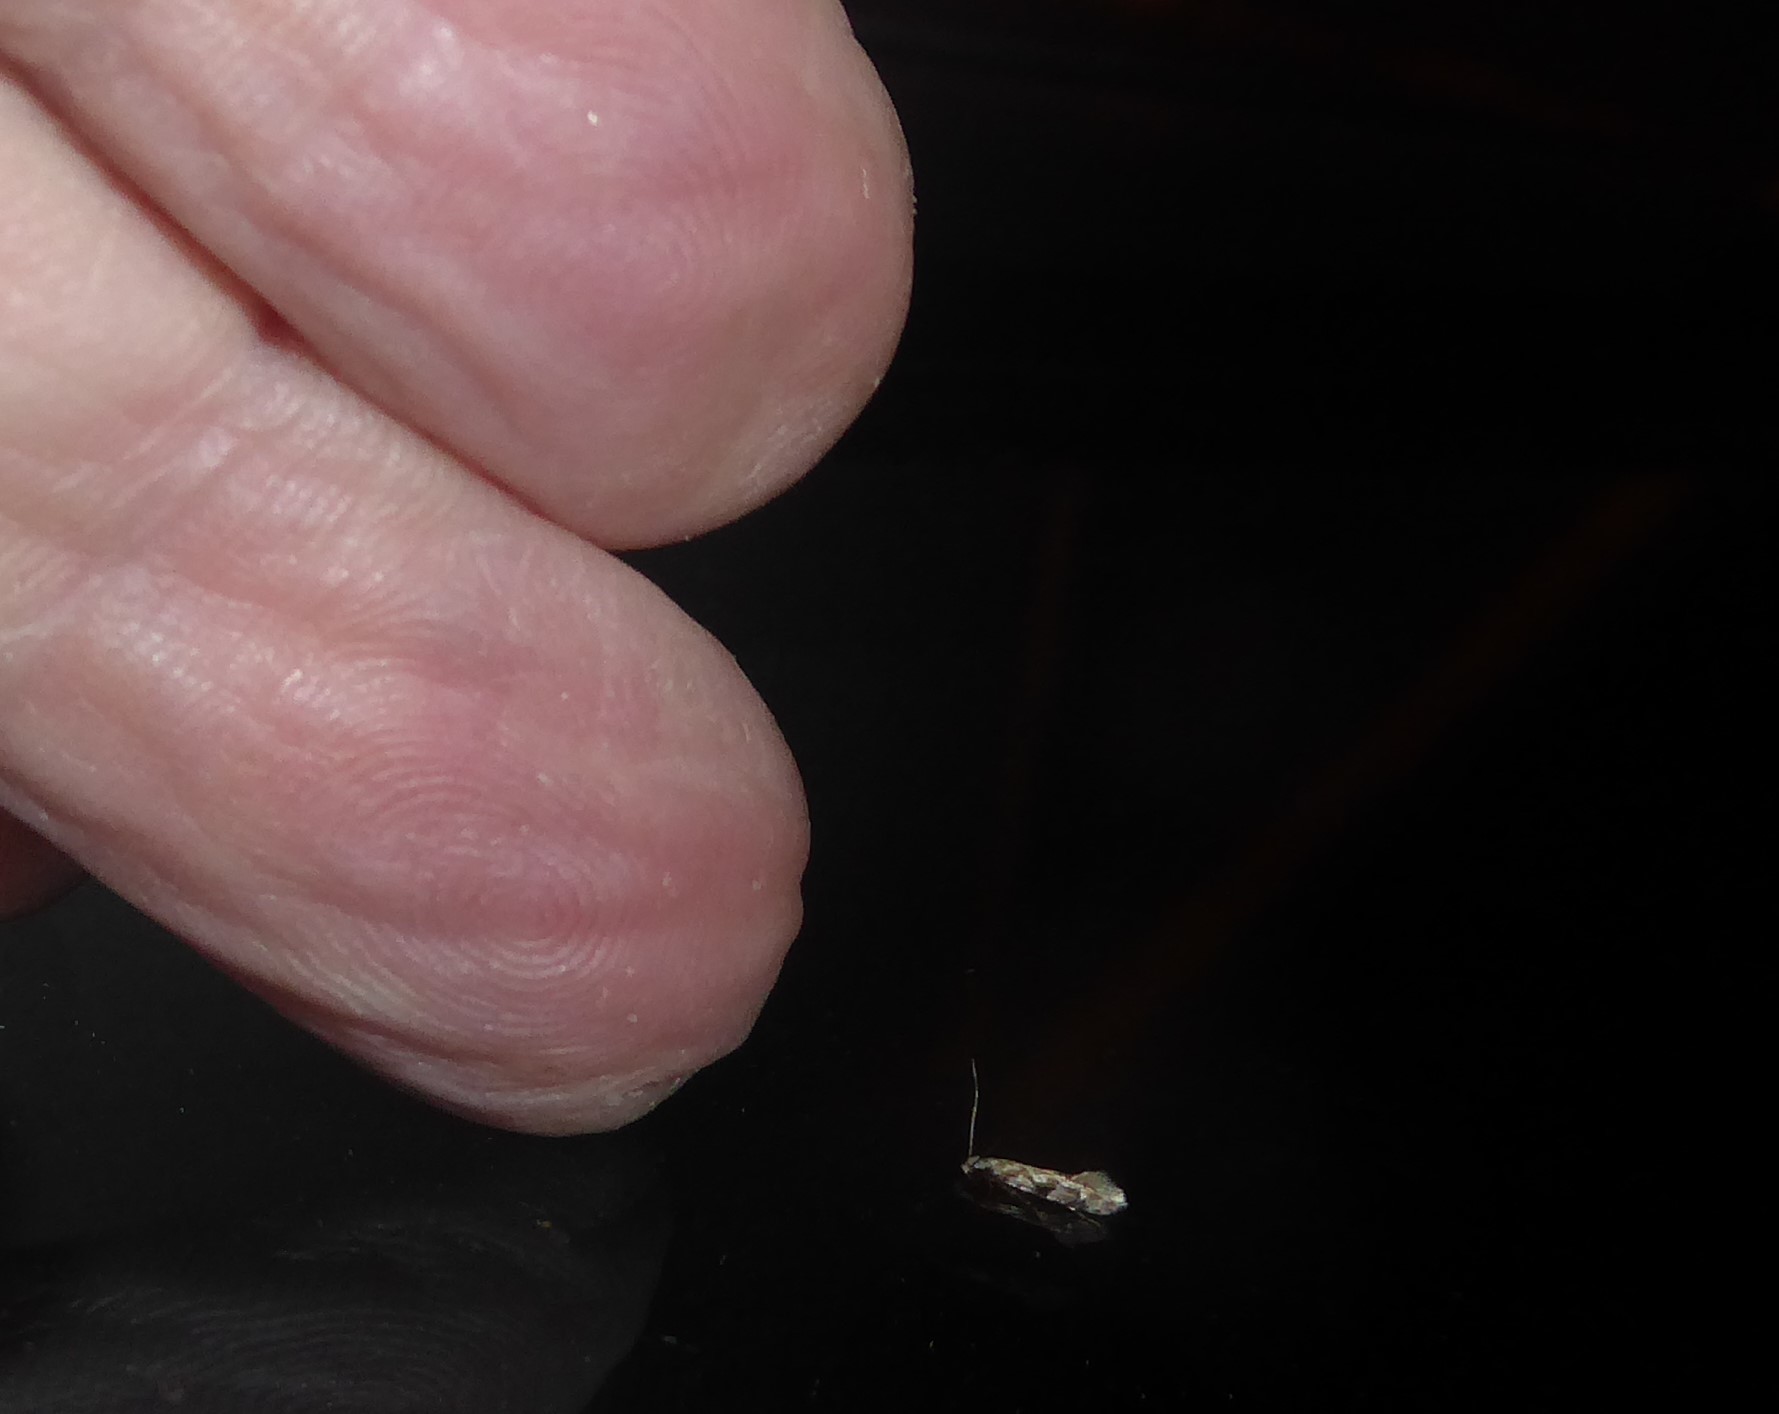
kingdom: Animalia
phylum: Arthropoda
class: Insecta
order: Lepidoptera
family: Tineidae
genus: Crypsitricha
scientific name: Crypsitricha mesotypa
